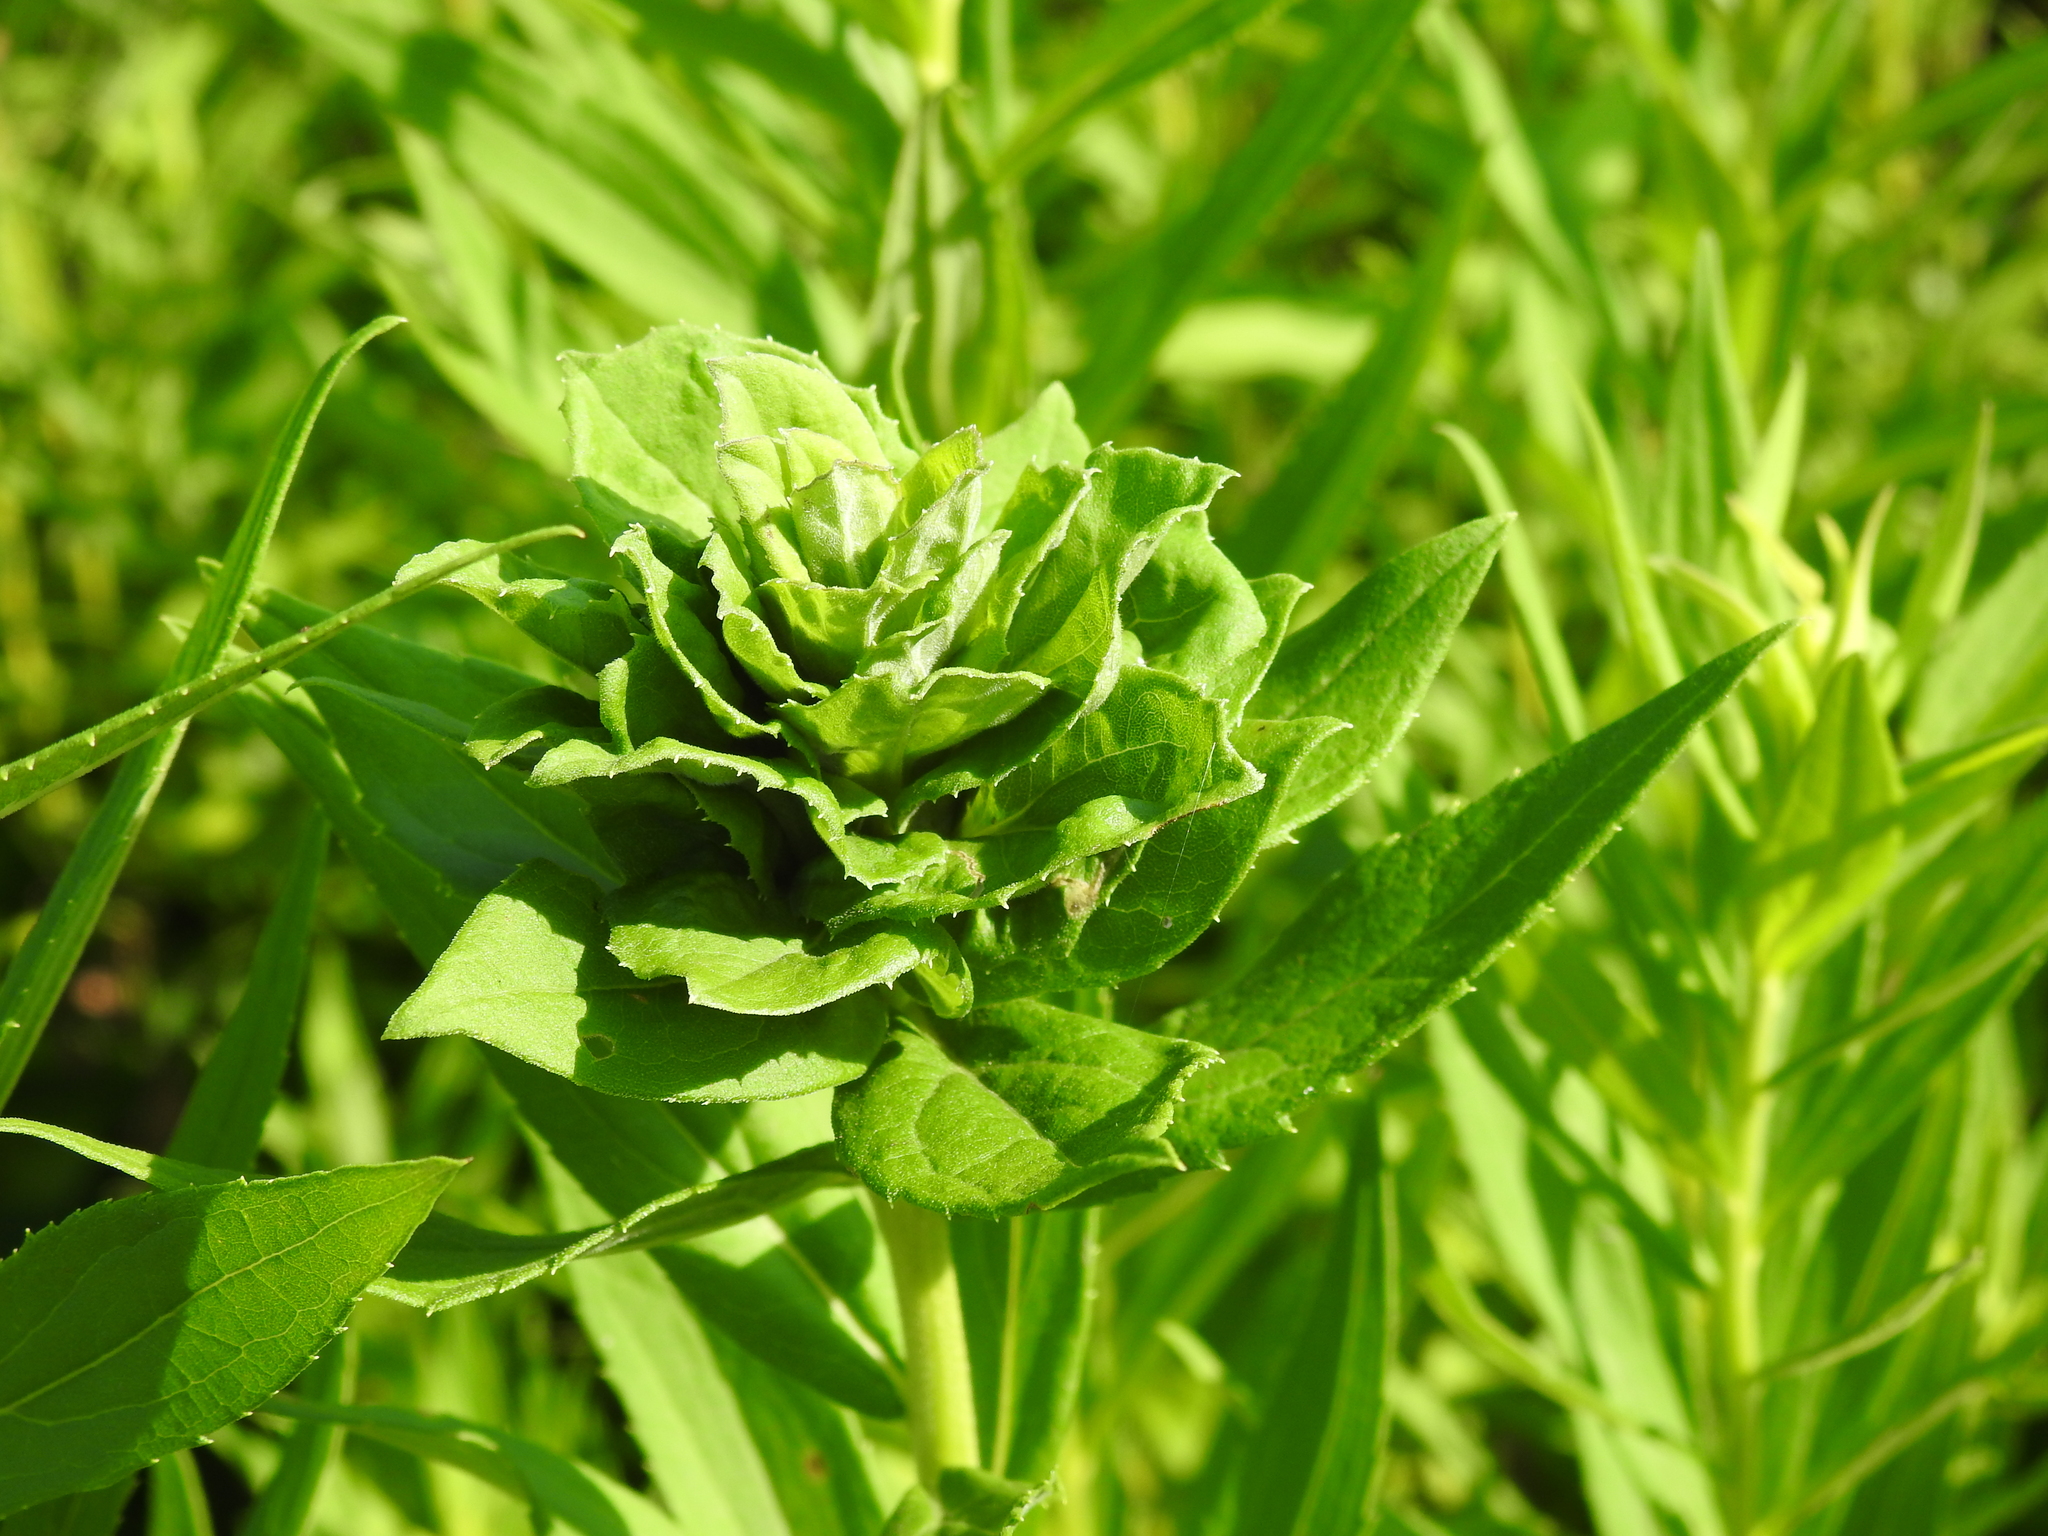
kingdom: Animalia
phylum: Arthropoda
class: Insecta
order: Diptera
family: Cecidomyiidae
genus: Rhopalomyia
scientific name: Rhopalomyia solidaginis
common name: Goldenrod bunch gall midge
